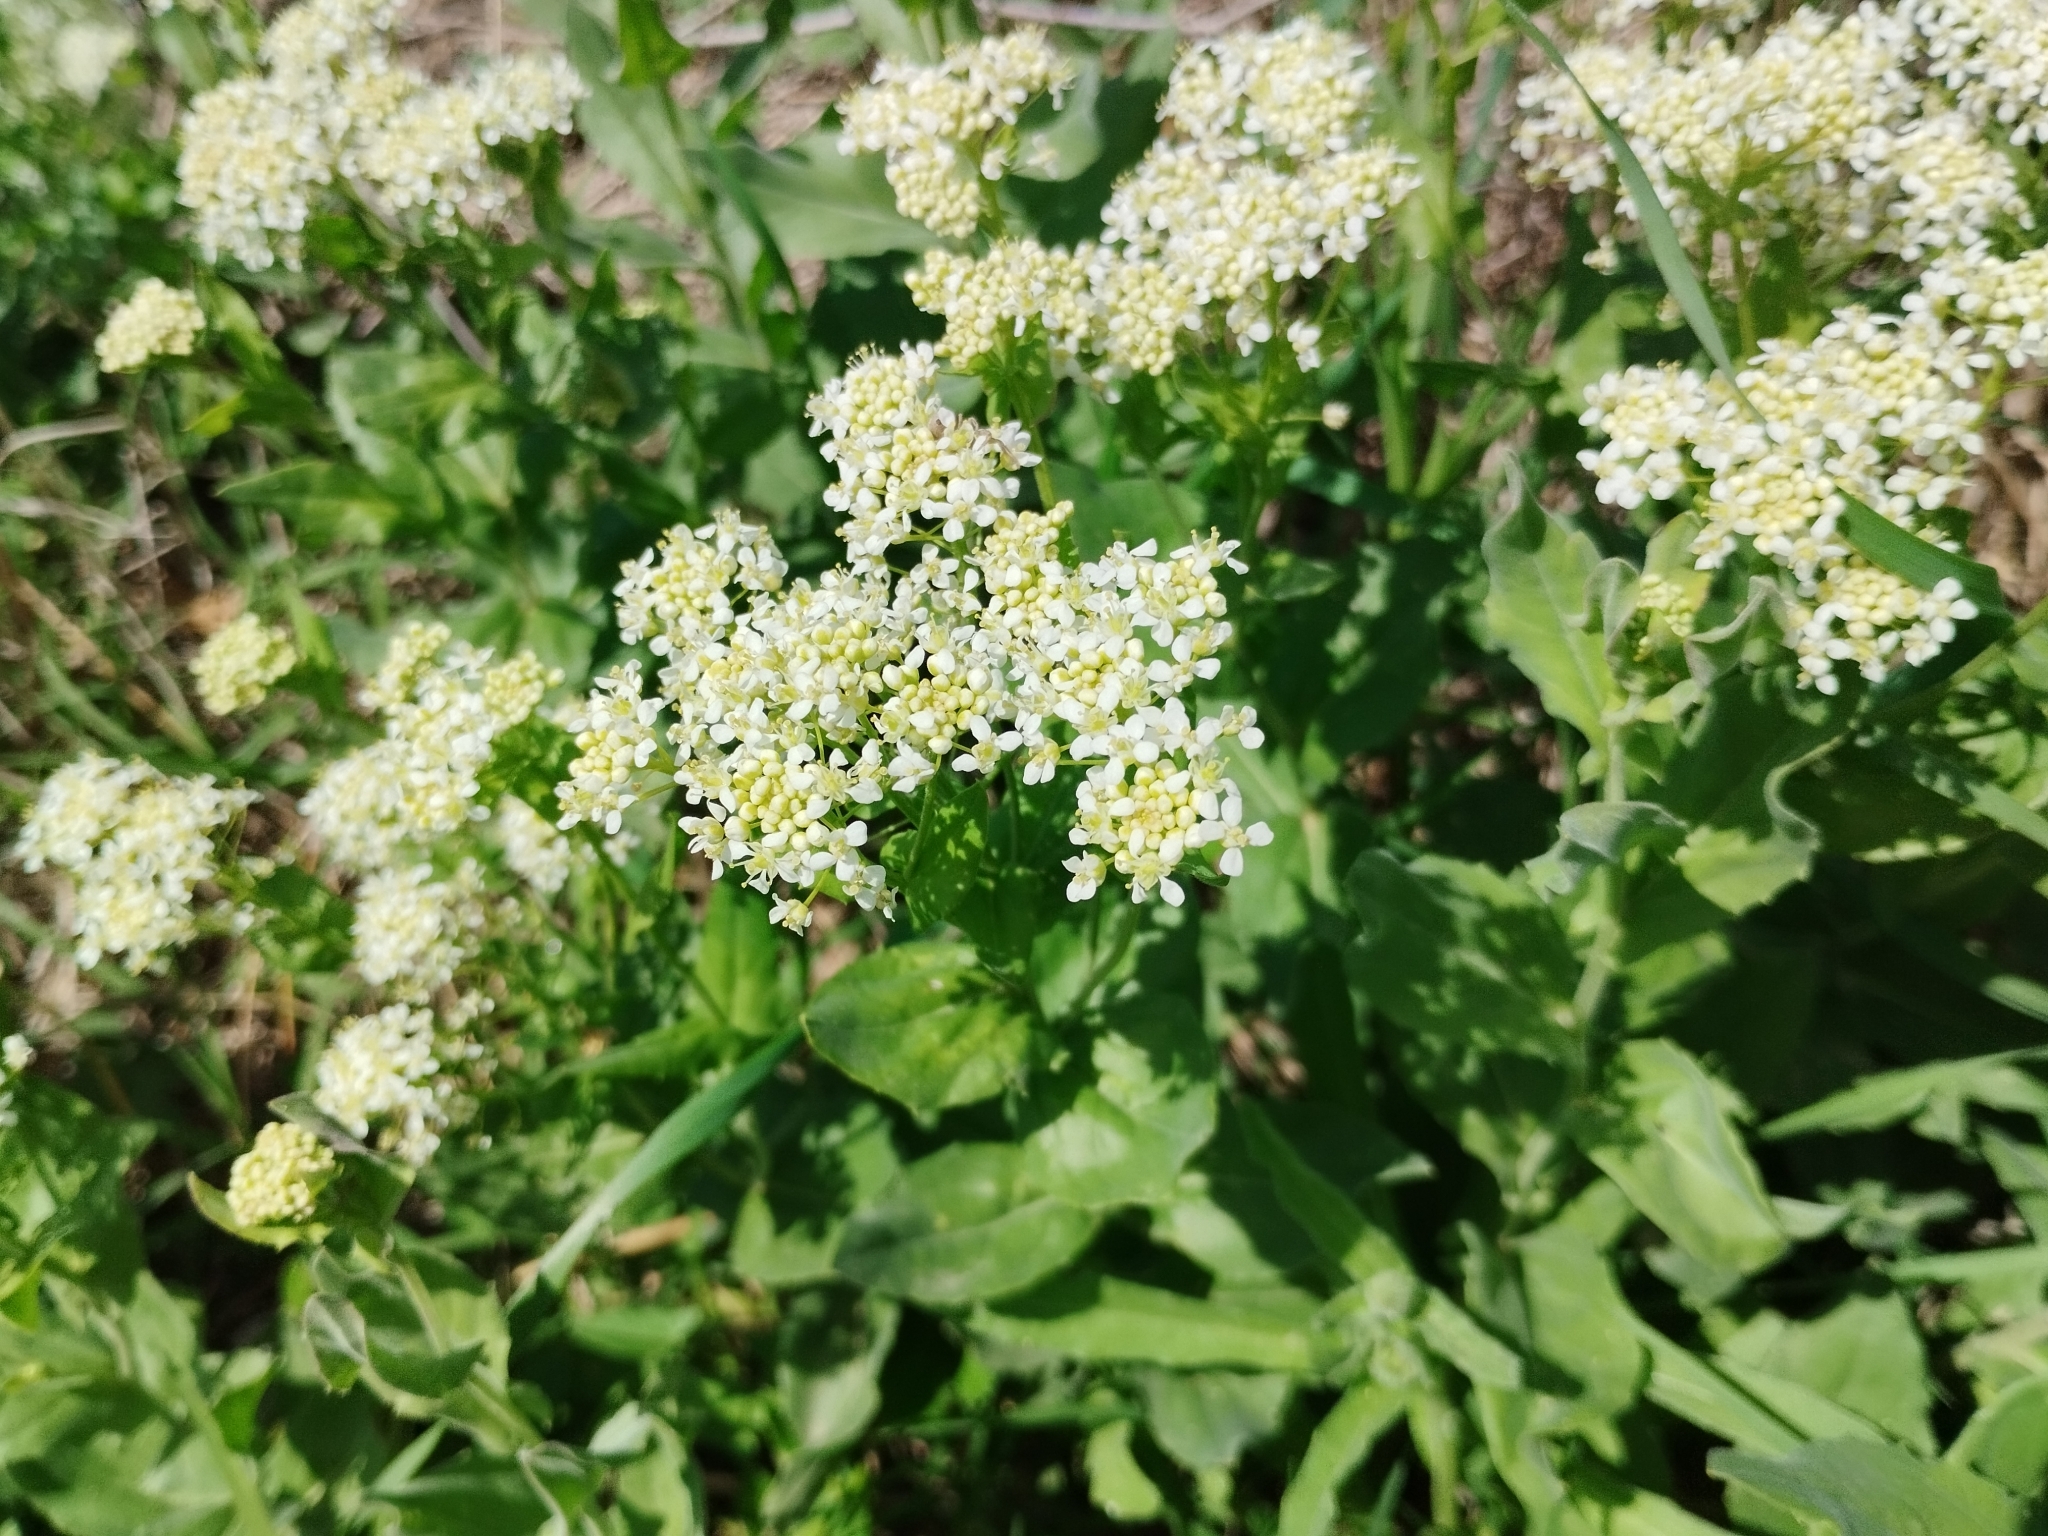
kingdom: Plantae
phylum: Tracheophyta
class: Magnoliopsida
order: Brassicales
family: Brassicaceae
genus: Lepidium
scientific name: Lepidium draba
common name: Hoary cress
